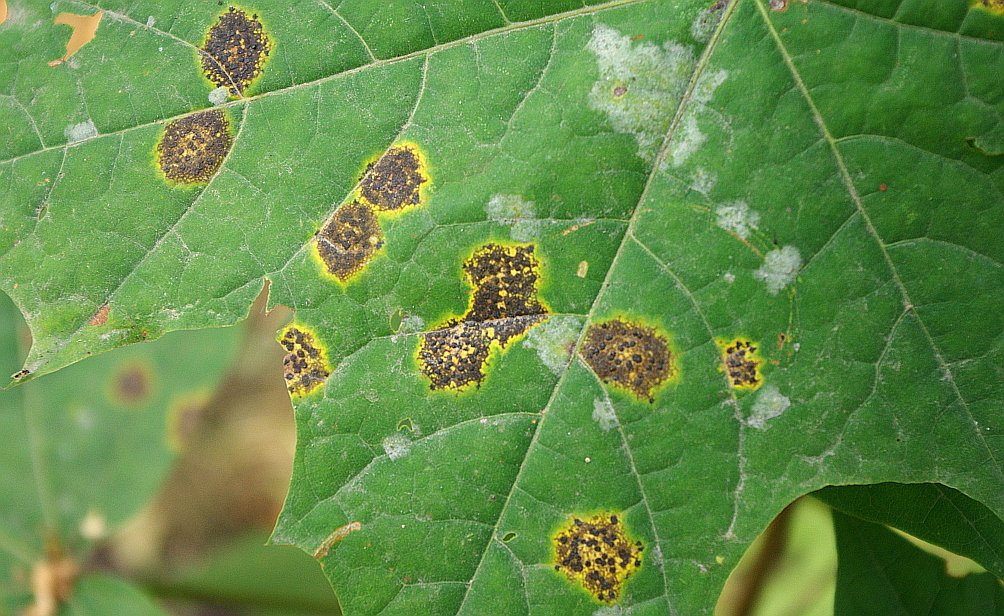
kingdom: Fungi
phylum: Ascomycota
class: Leotiomycetes
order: Rhytismatales
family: Rhytismataceae
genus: Rhytisma
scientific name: Rhytisma acerinum
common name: European tar spot
